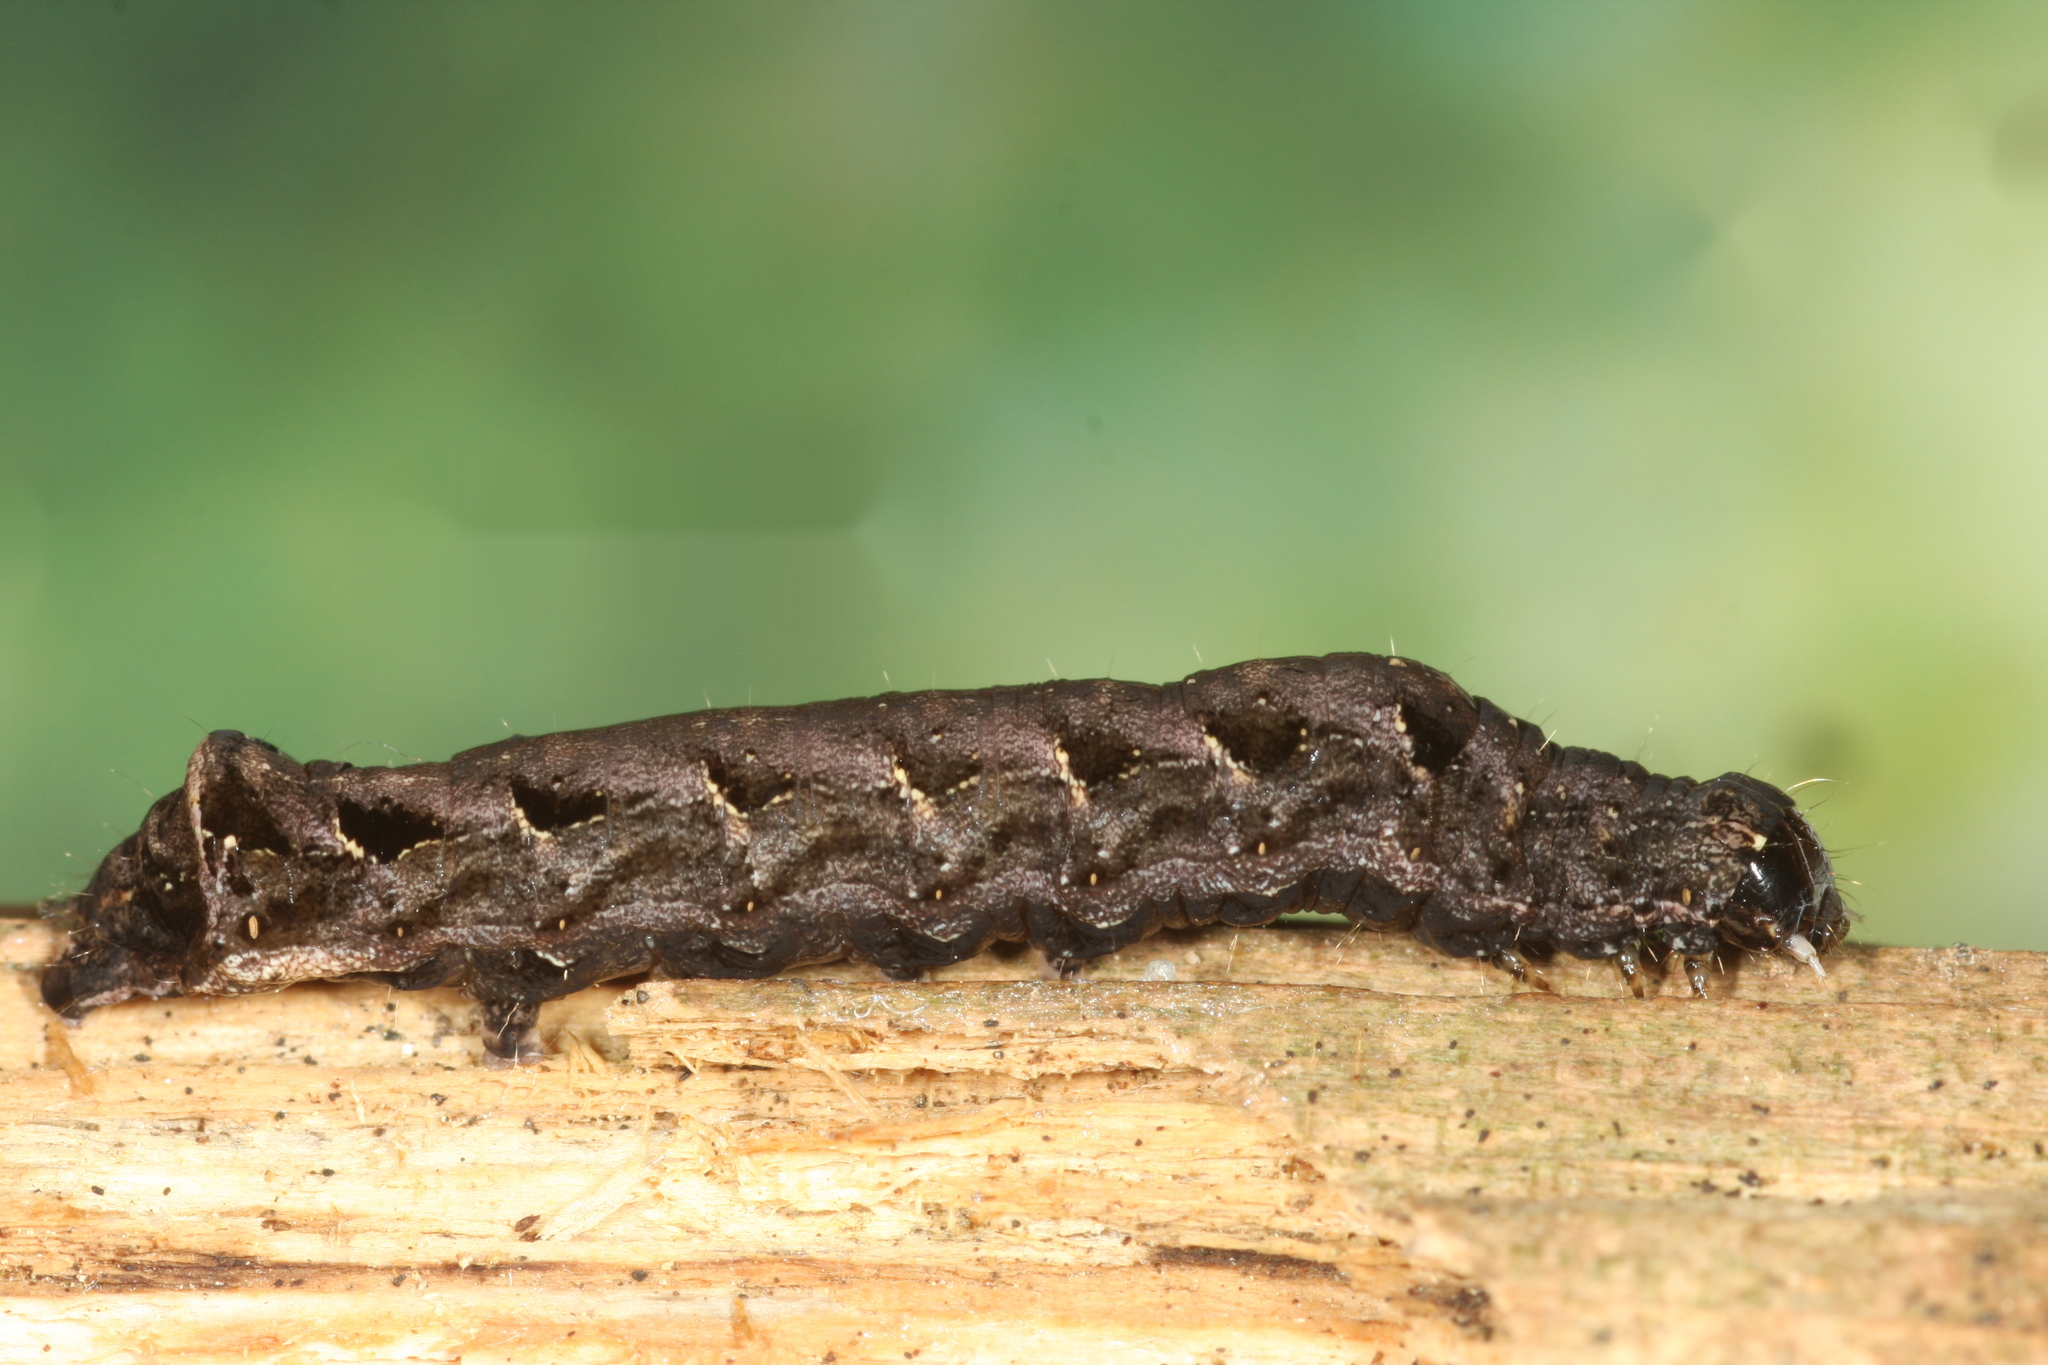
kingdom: Animalia
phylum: Arthropoda
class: Insecta
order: Lepidoptera
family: Noctuidae
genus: Axylia
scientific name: Axylia putris
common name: Flame
